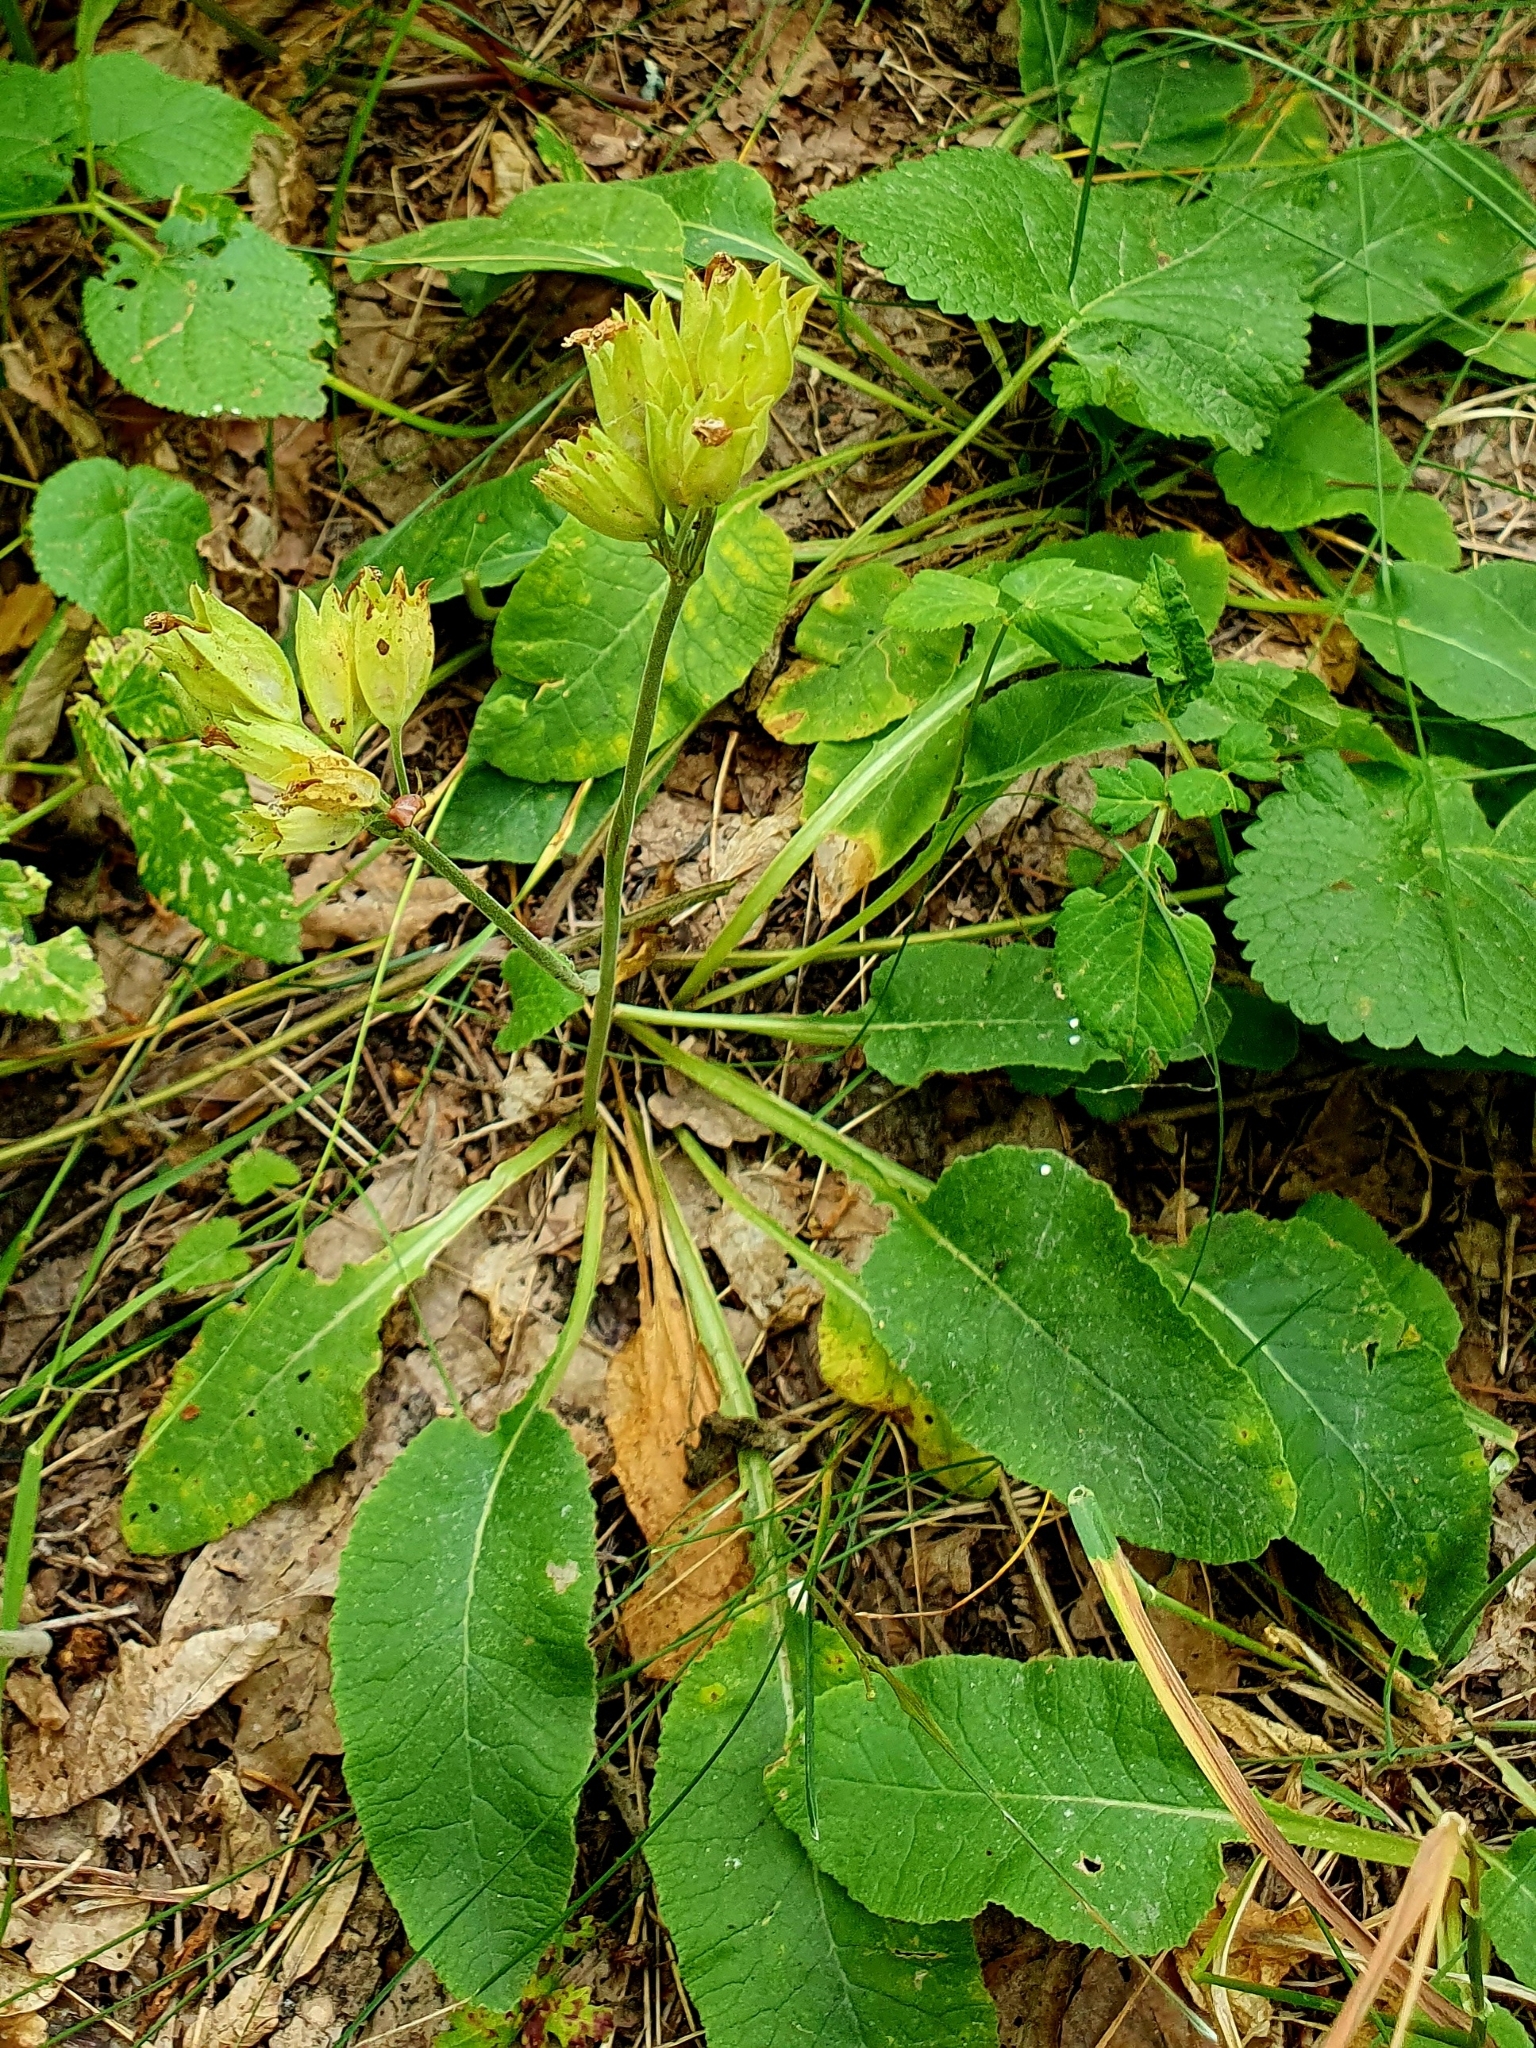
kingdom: Plantae
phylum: Tracheophyta
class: Magnoliopsida
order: Ericales
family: Primulaceae
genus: Primula
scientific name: Primula veris
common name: Cowslip
